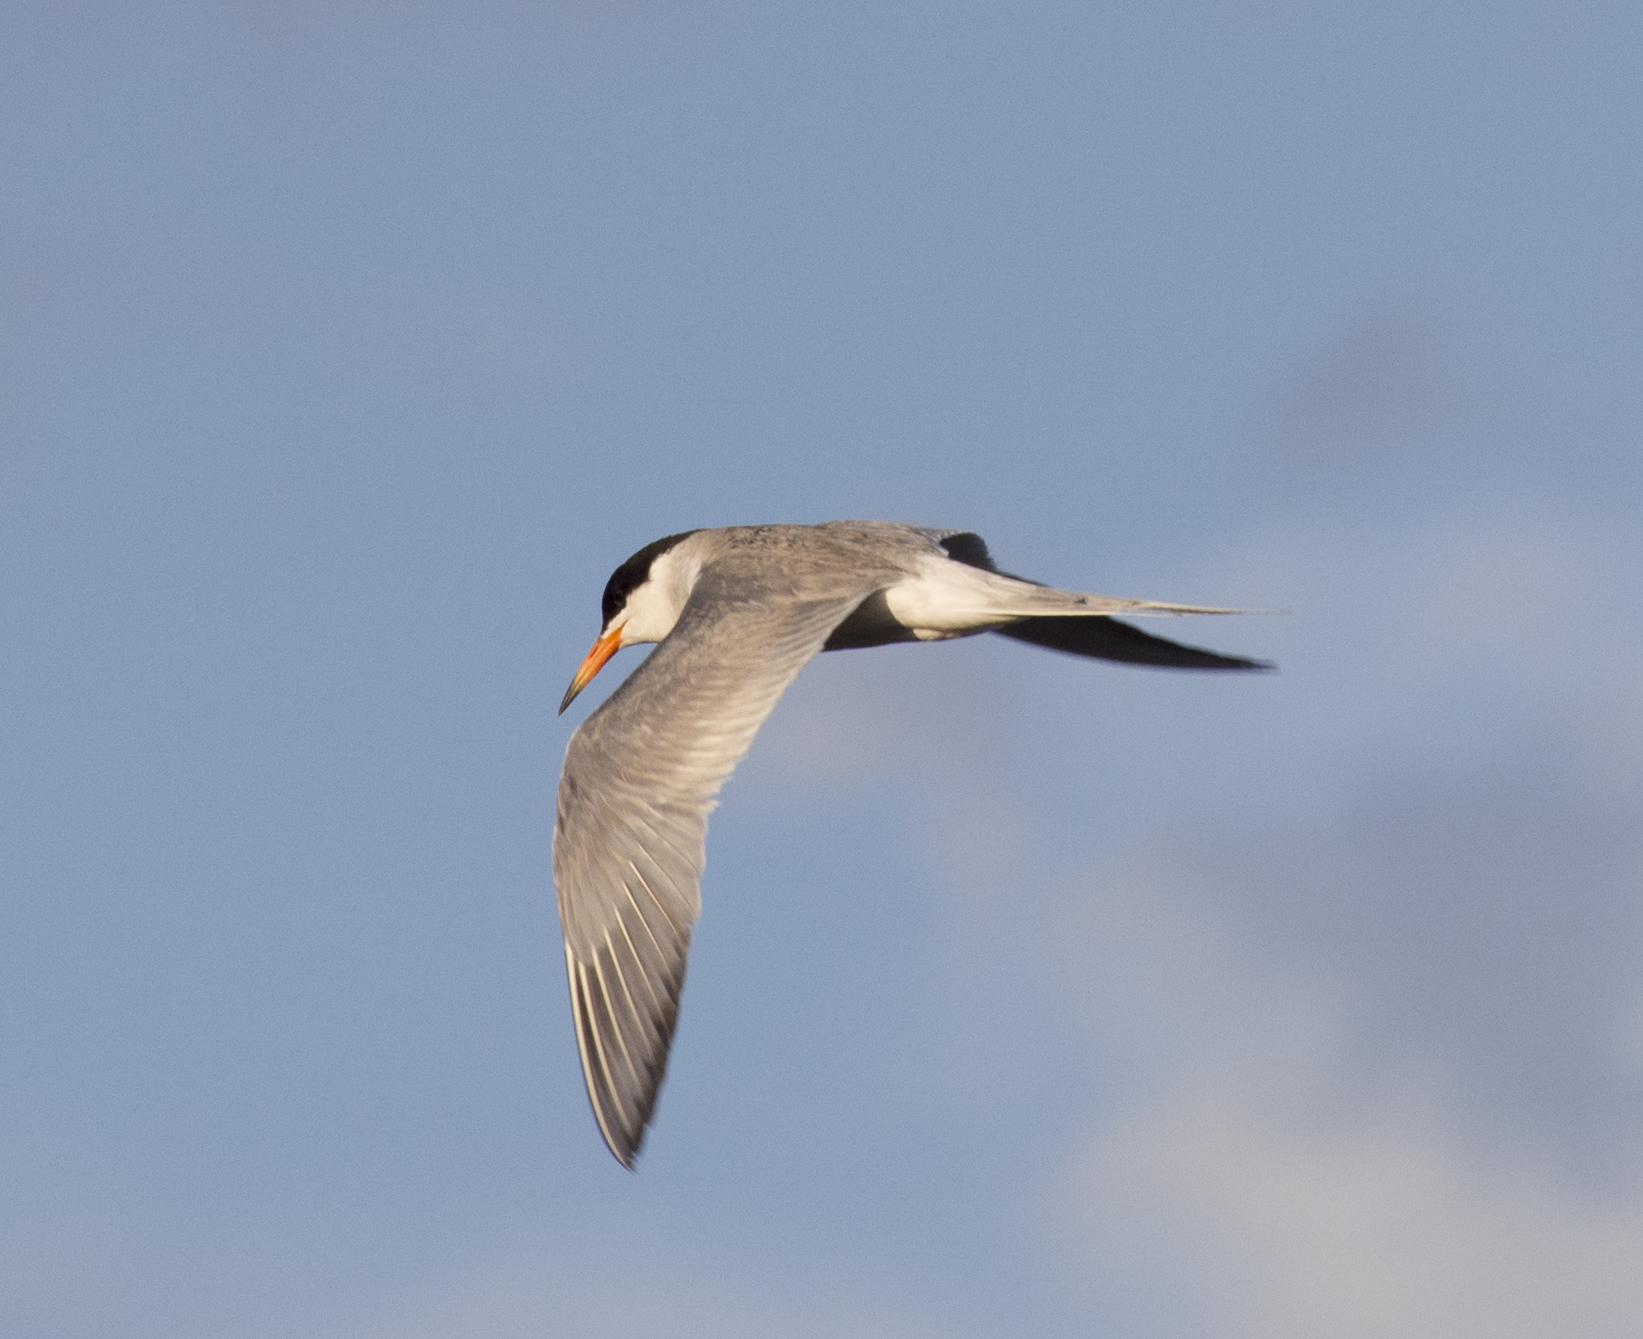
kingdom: Animalia
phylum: Chordata
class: Aves
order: Charadriiformes
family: Laridae
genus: Sterna
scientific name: Sterna forsteri
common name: Forster's tern
